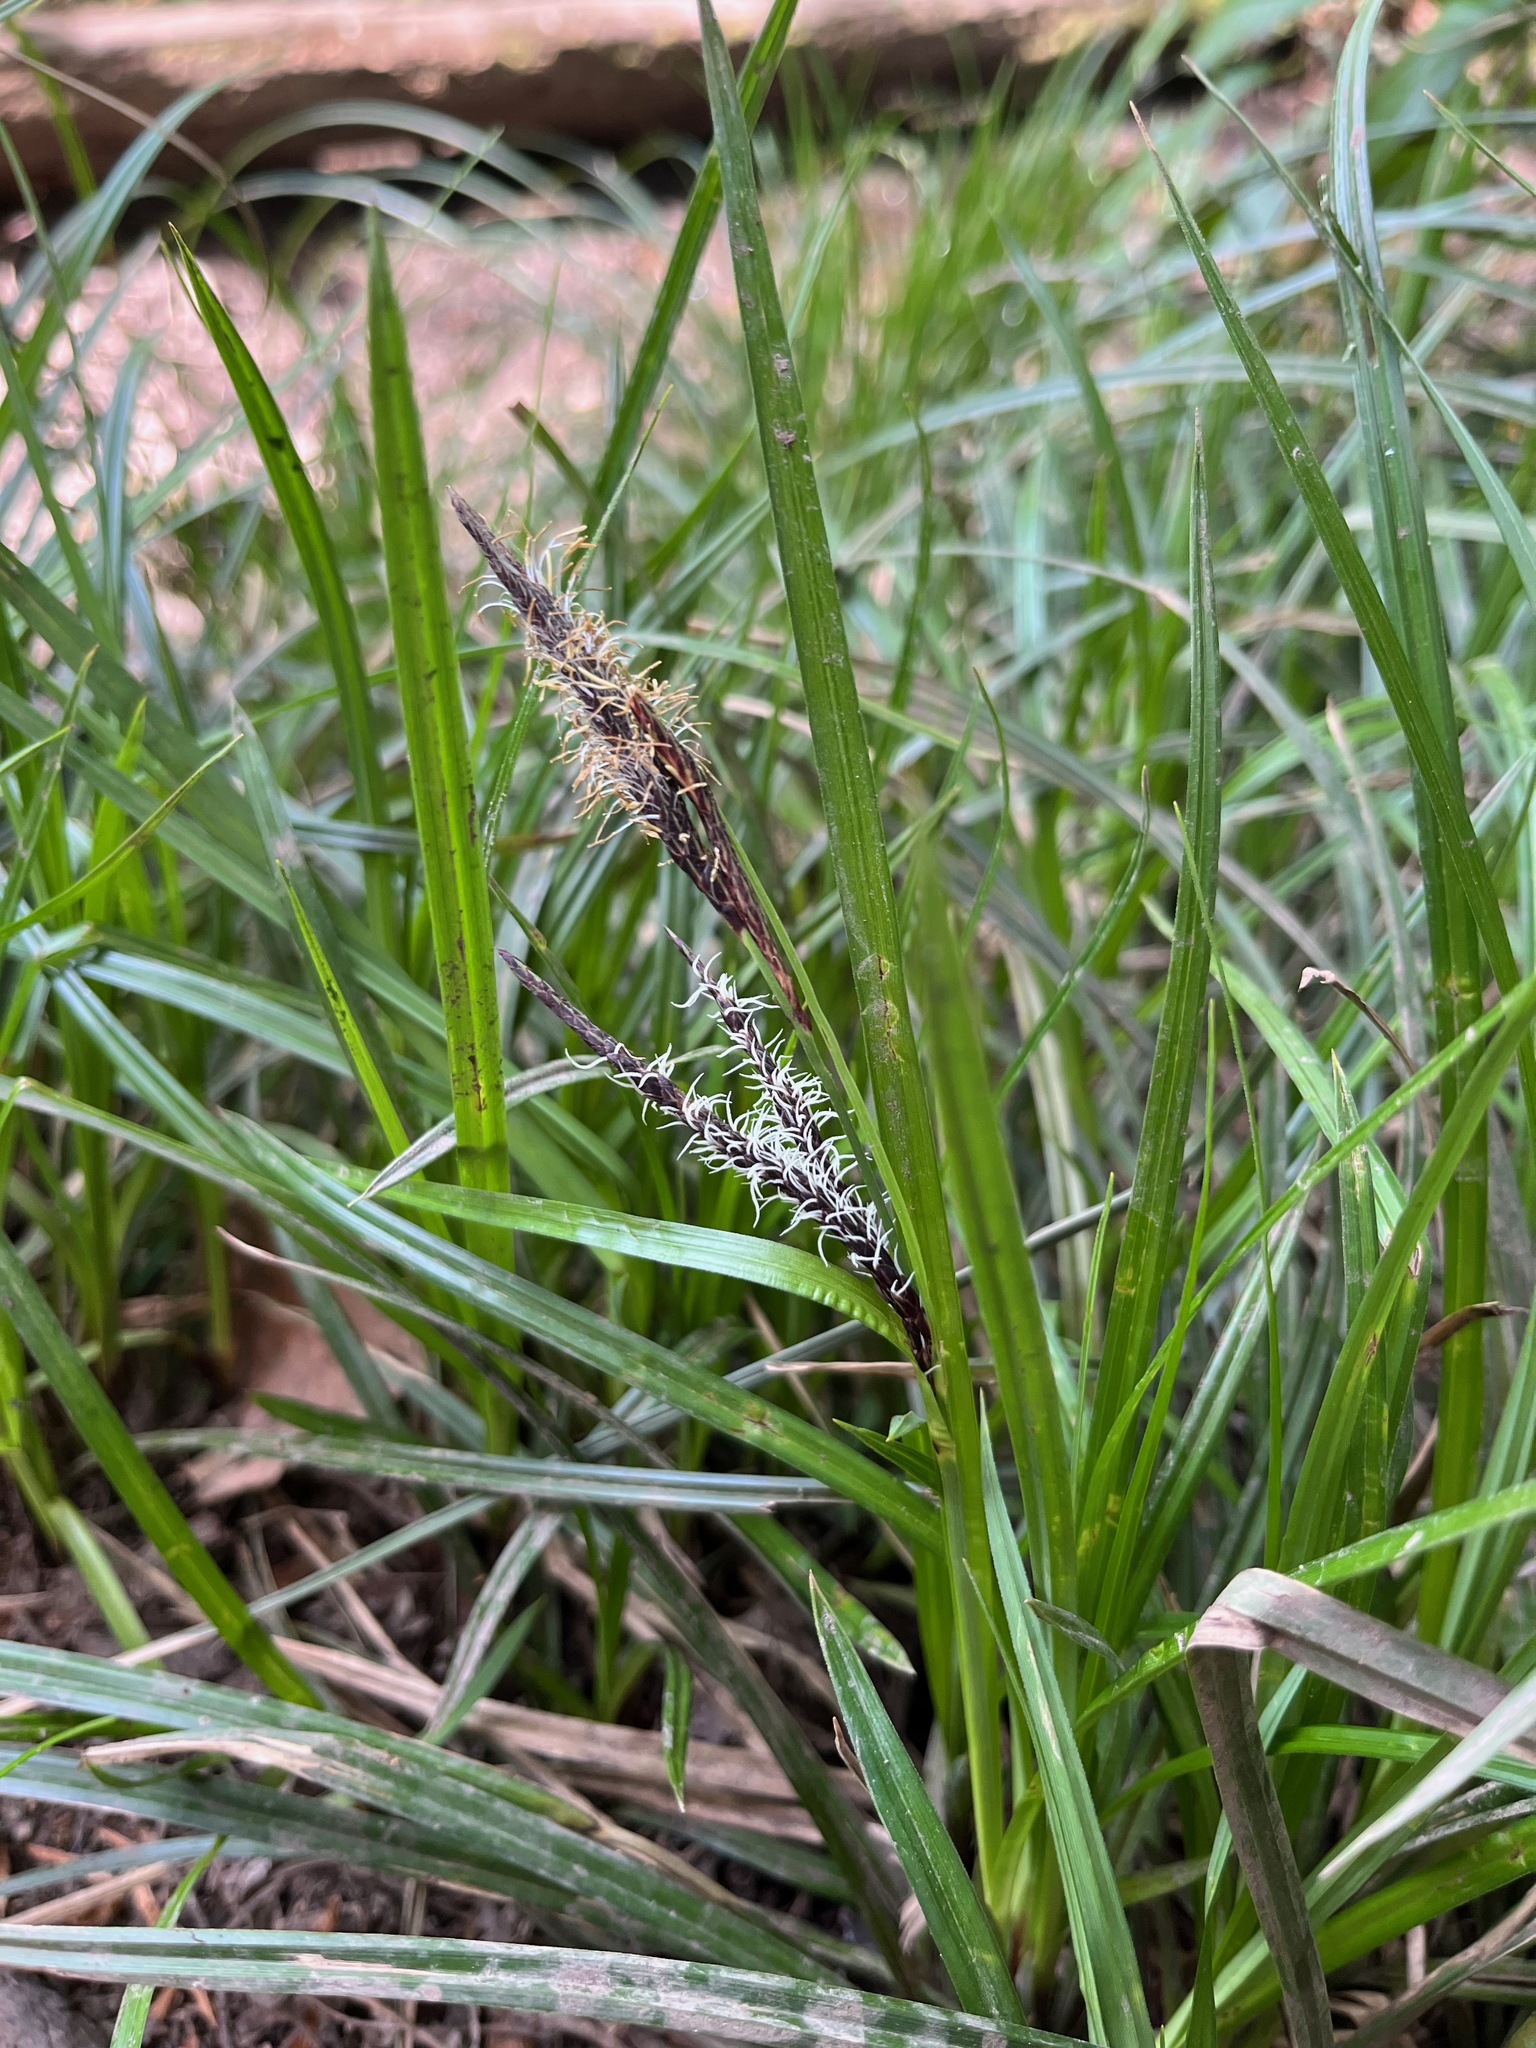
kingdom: Plantae
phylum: Tracheophyta
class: Liliopsida
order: Poales
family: Cyperaceae
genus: Carex
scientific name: Carex obnupta
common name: Slough sedge
